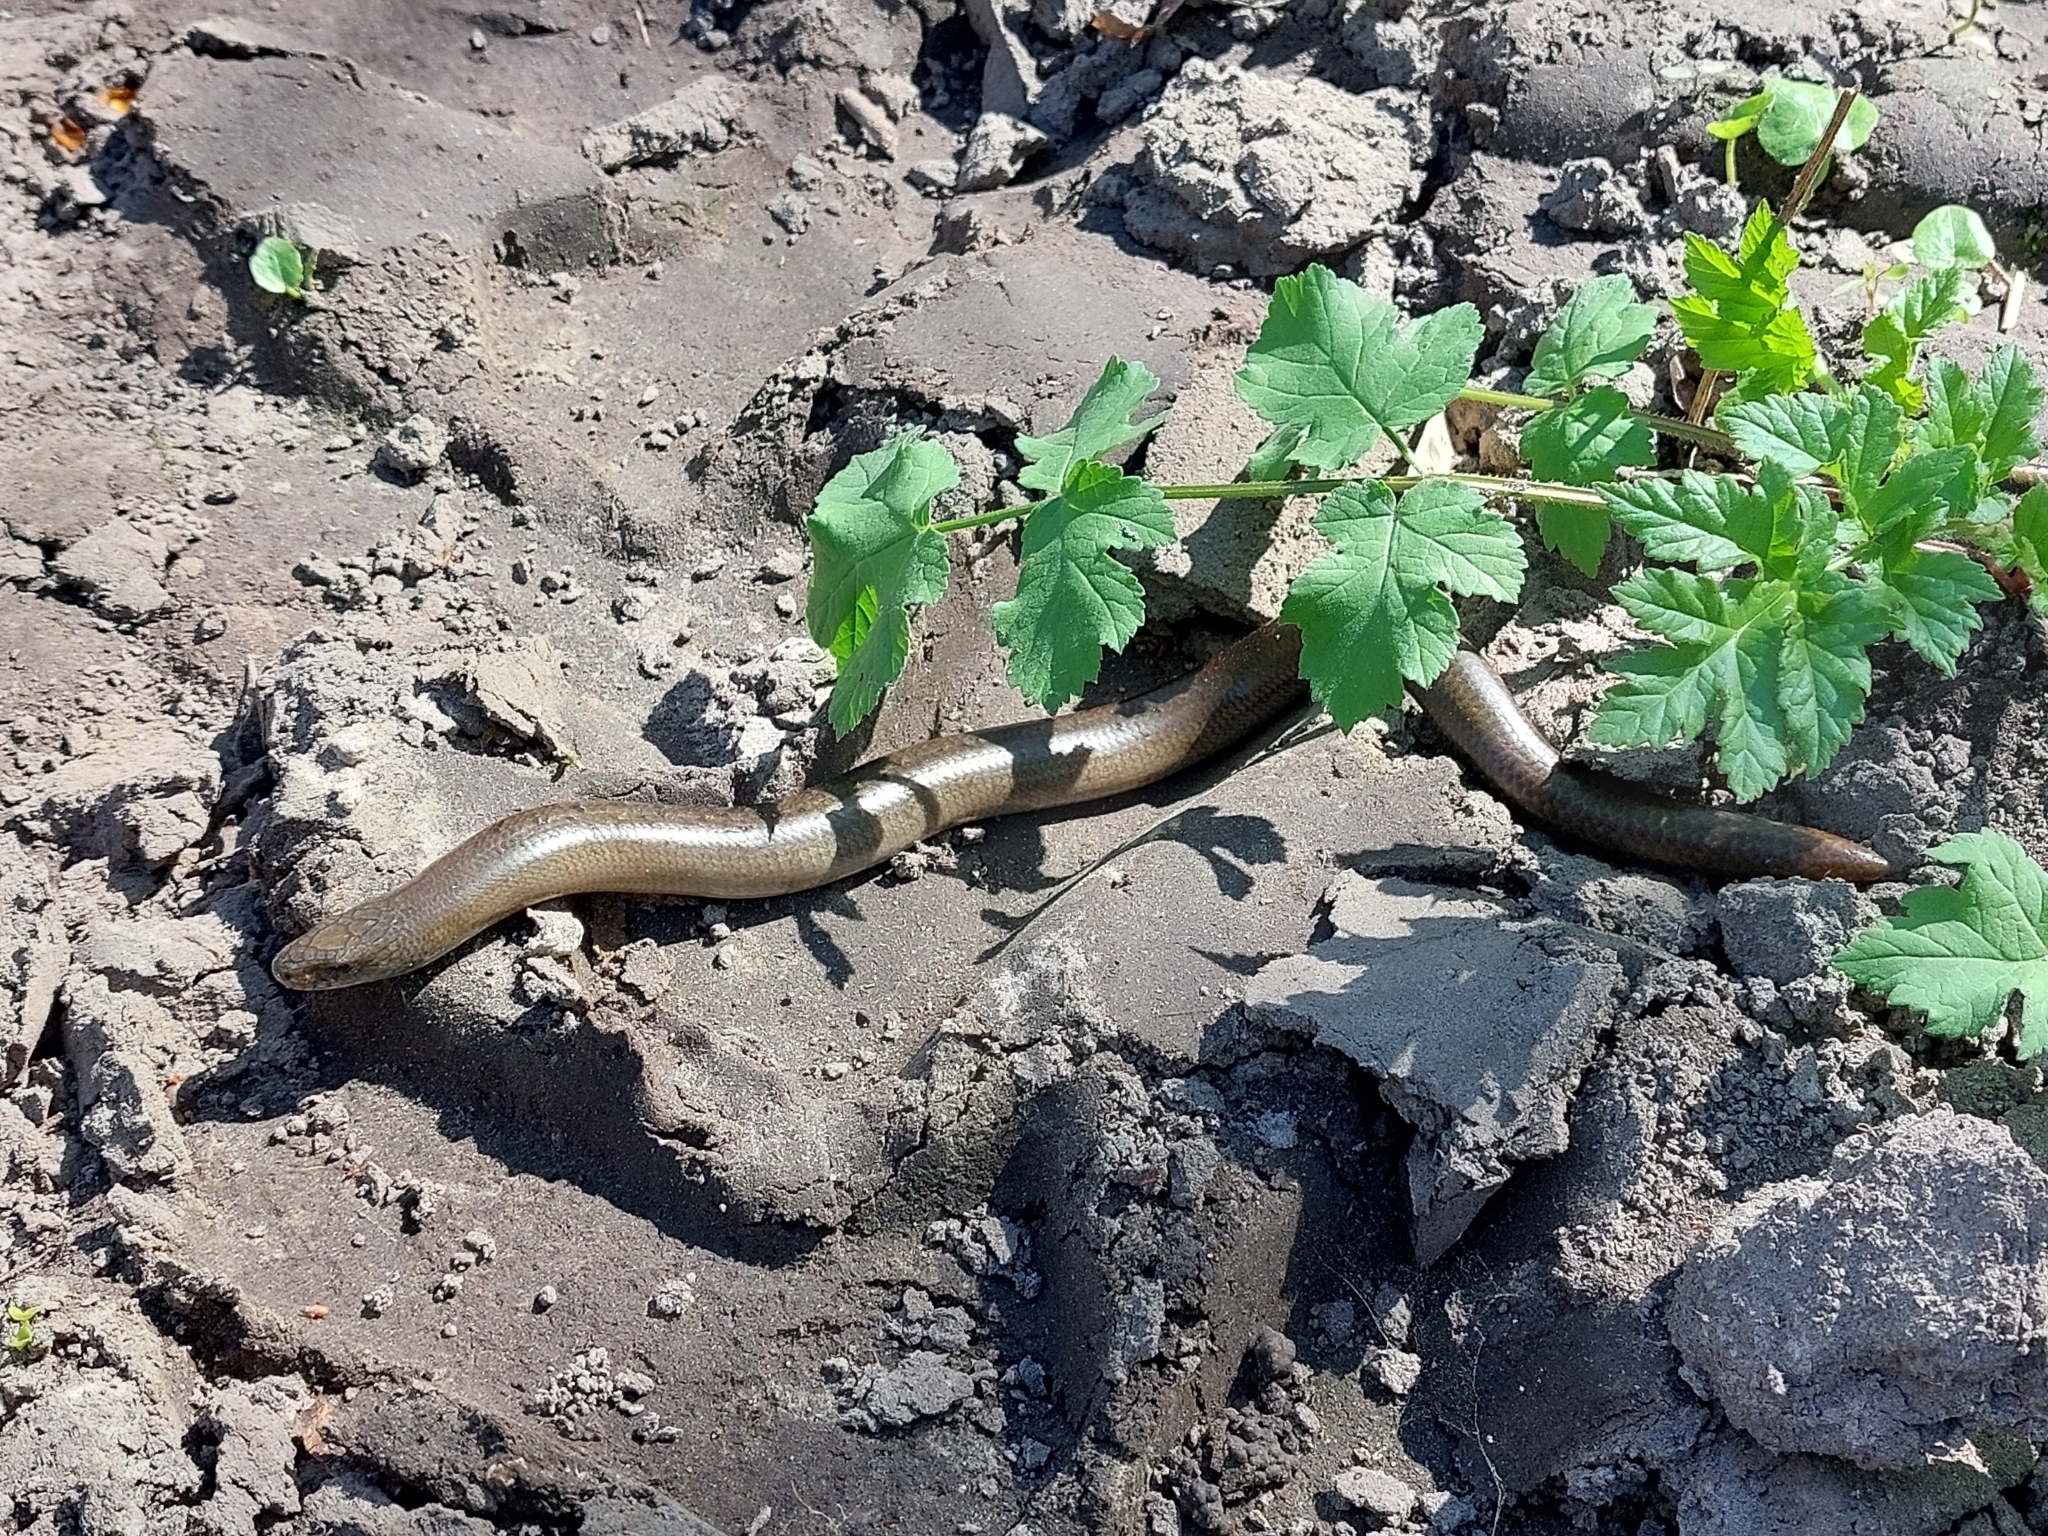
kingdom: Animalia
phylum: Chordata
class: Squamata
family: Anguidae
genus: Anguis
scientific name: Anguis colchica
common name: Slow worm
